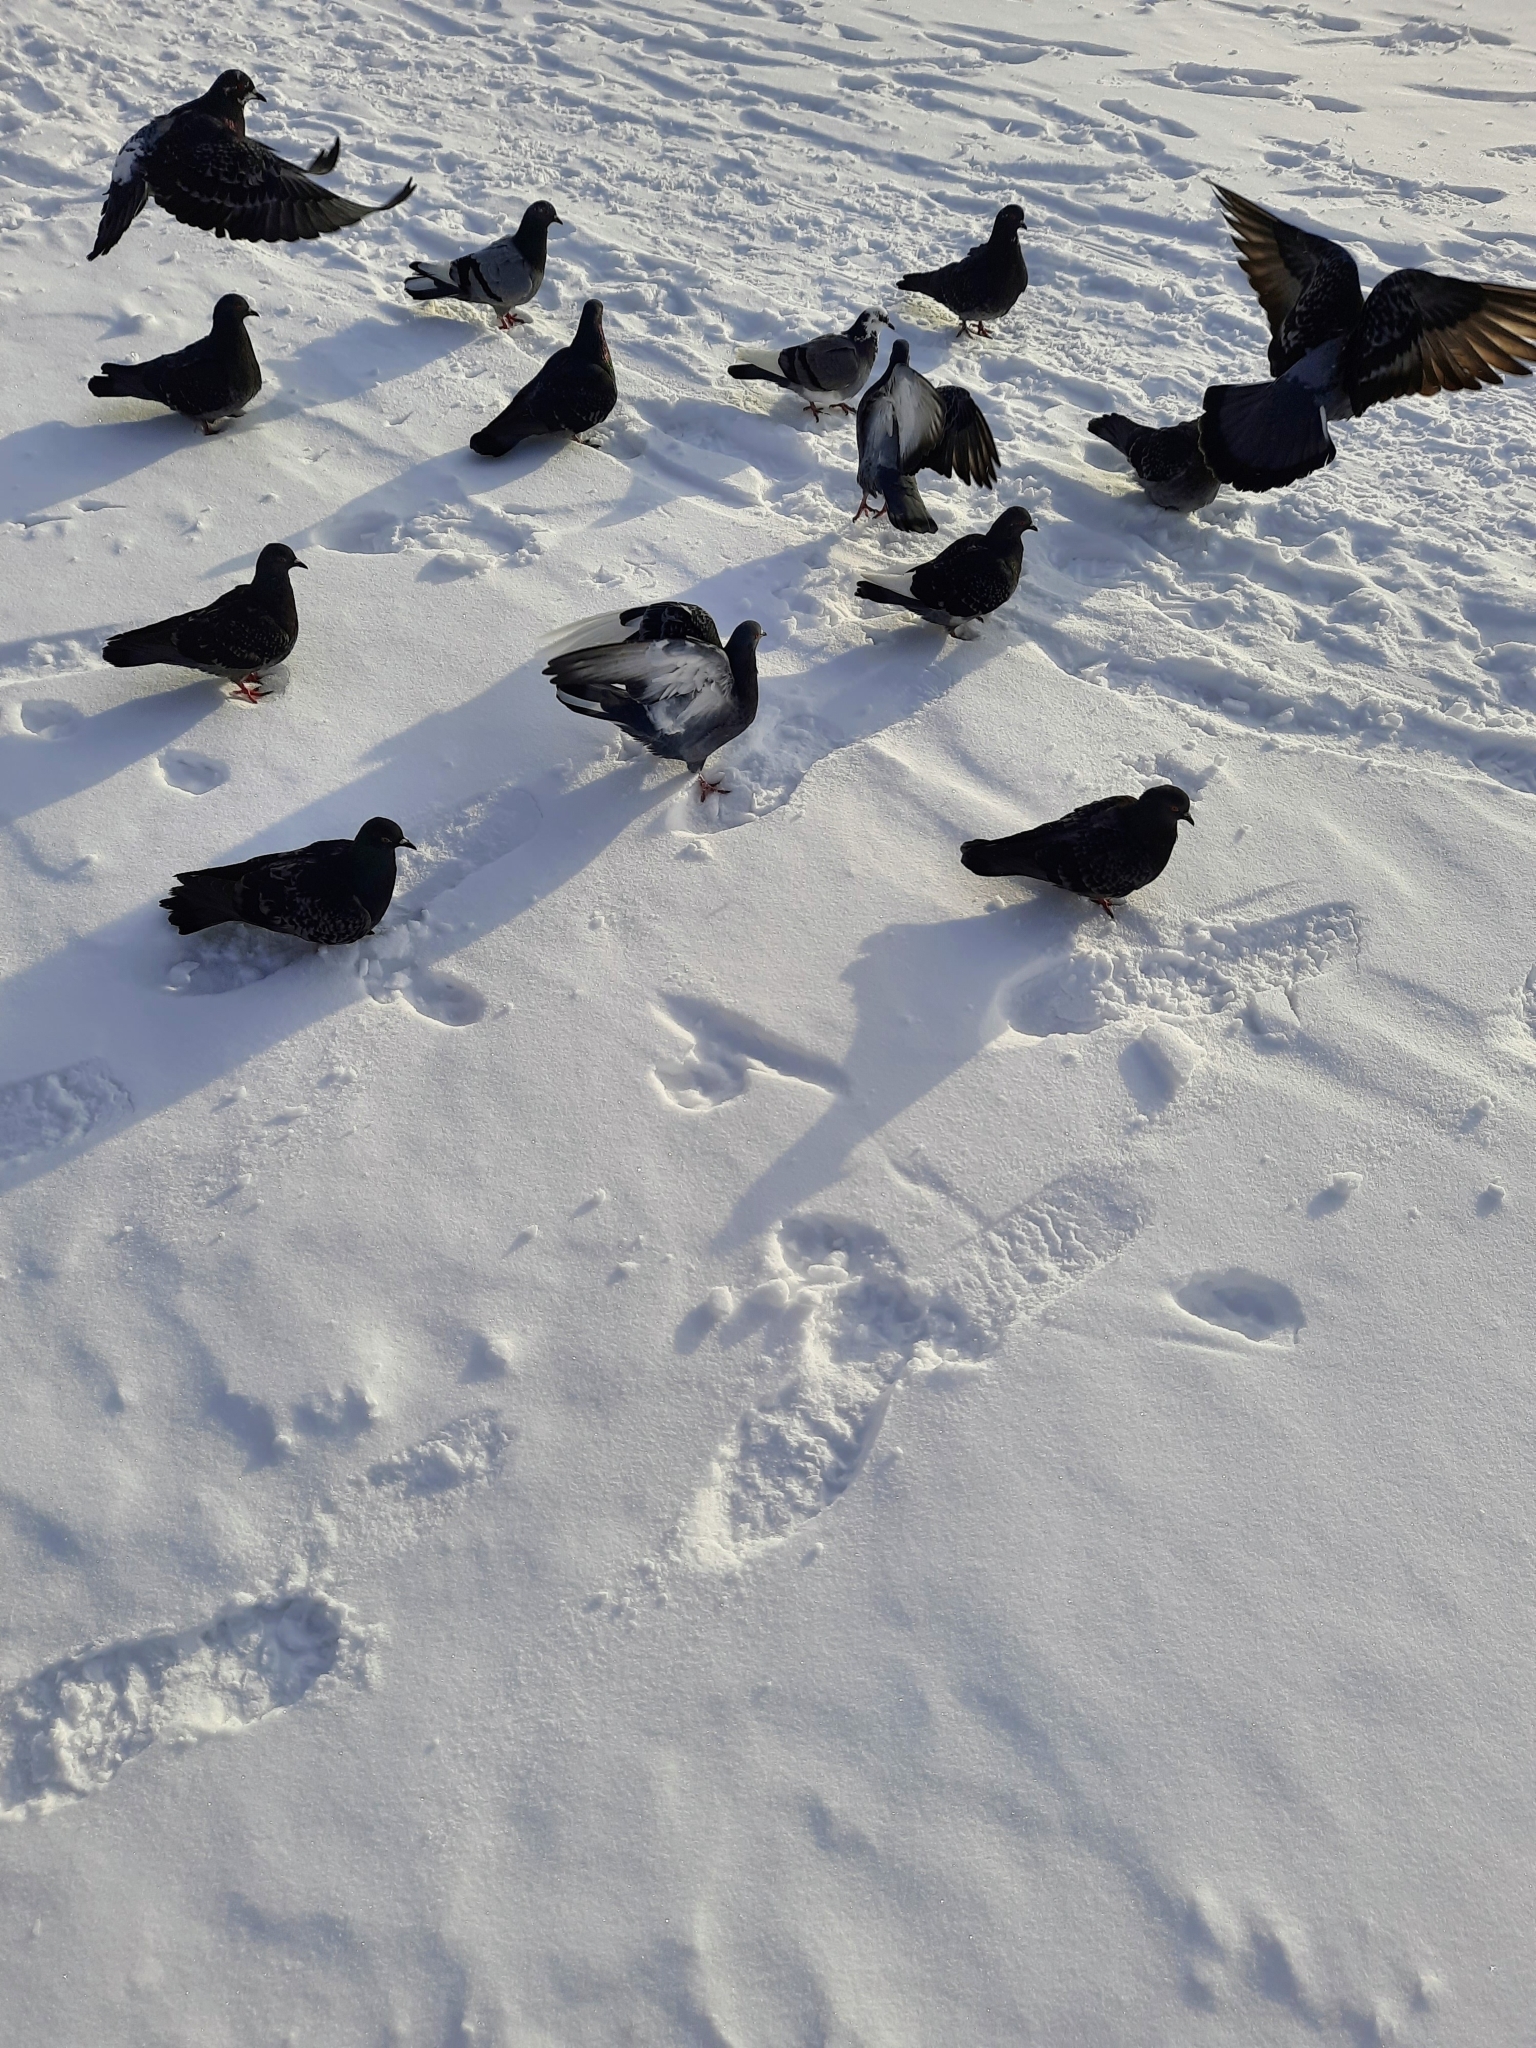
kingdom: Animalia
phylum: Chordata
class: Aves
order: Columbiformes
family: Columbidae
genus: Columba
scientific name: Columba livia
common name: Rock pigeon
